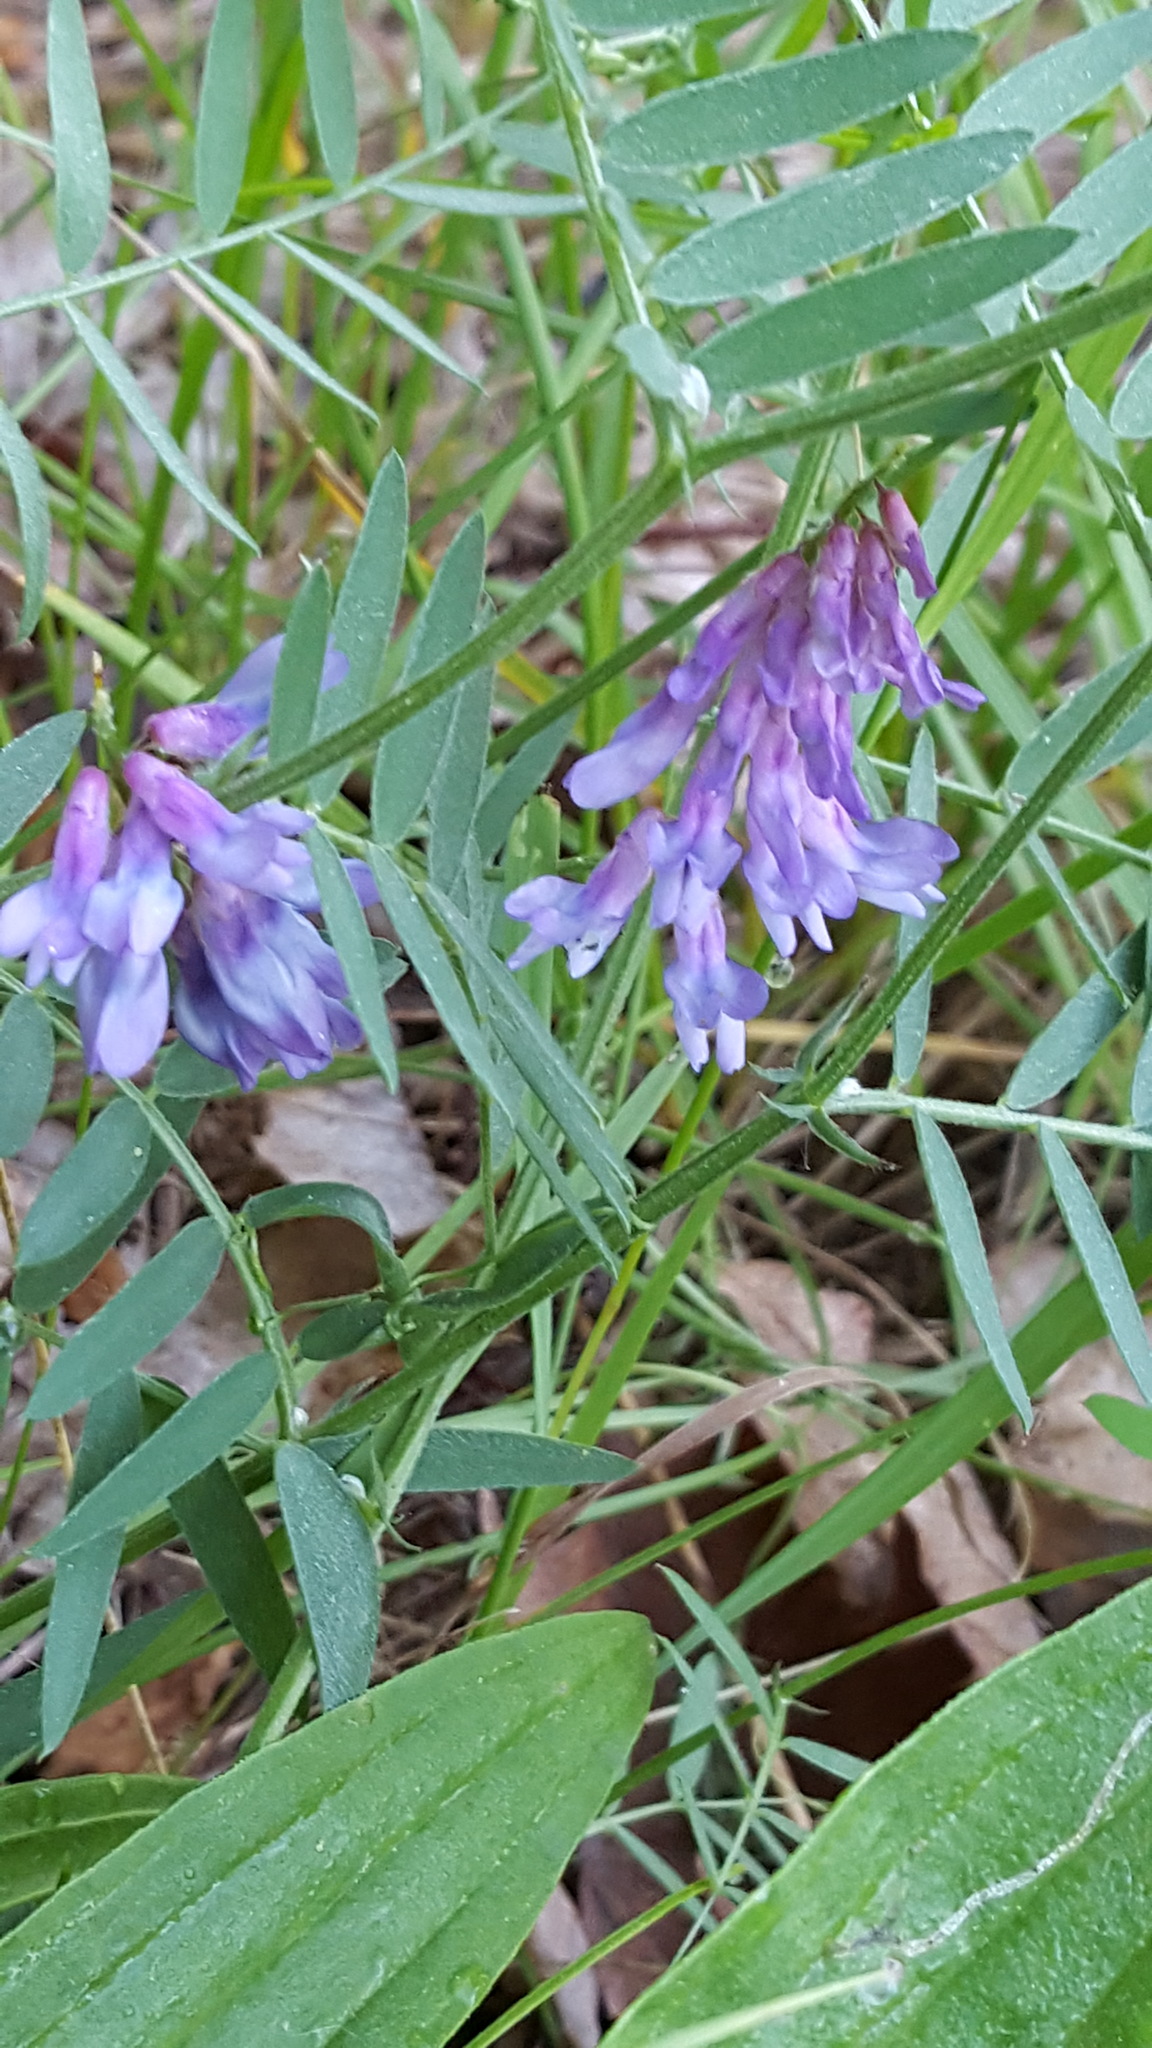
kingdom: Plantae
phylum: Tracheophyta
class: Magnoliopsida
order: Fabales
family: Fabaceae
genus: Vicia
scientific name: Vicia cracca
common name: Bird vetch
